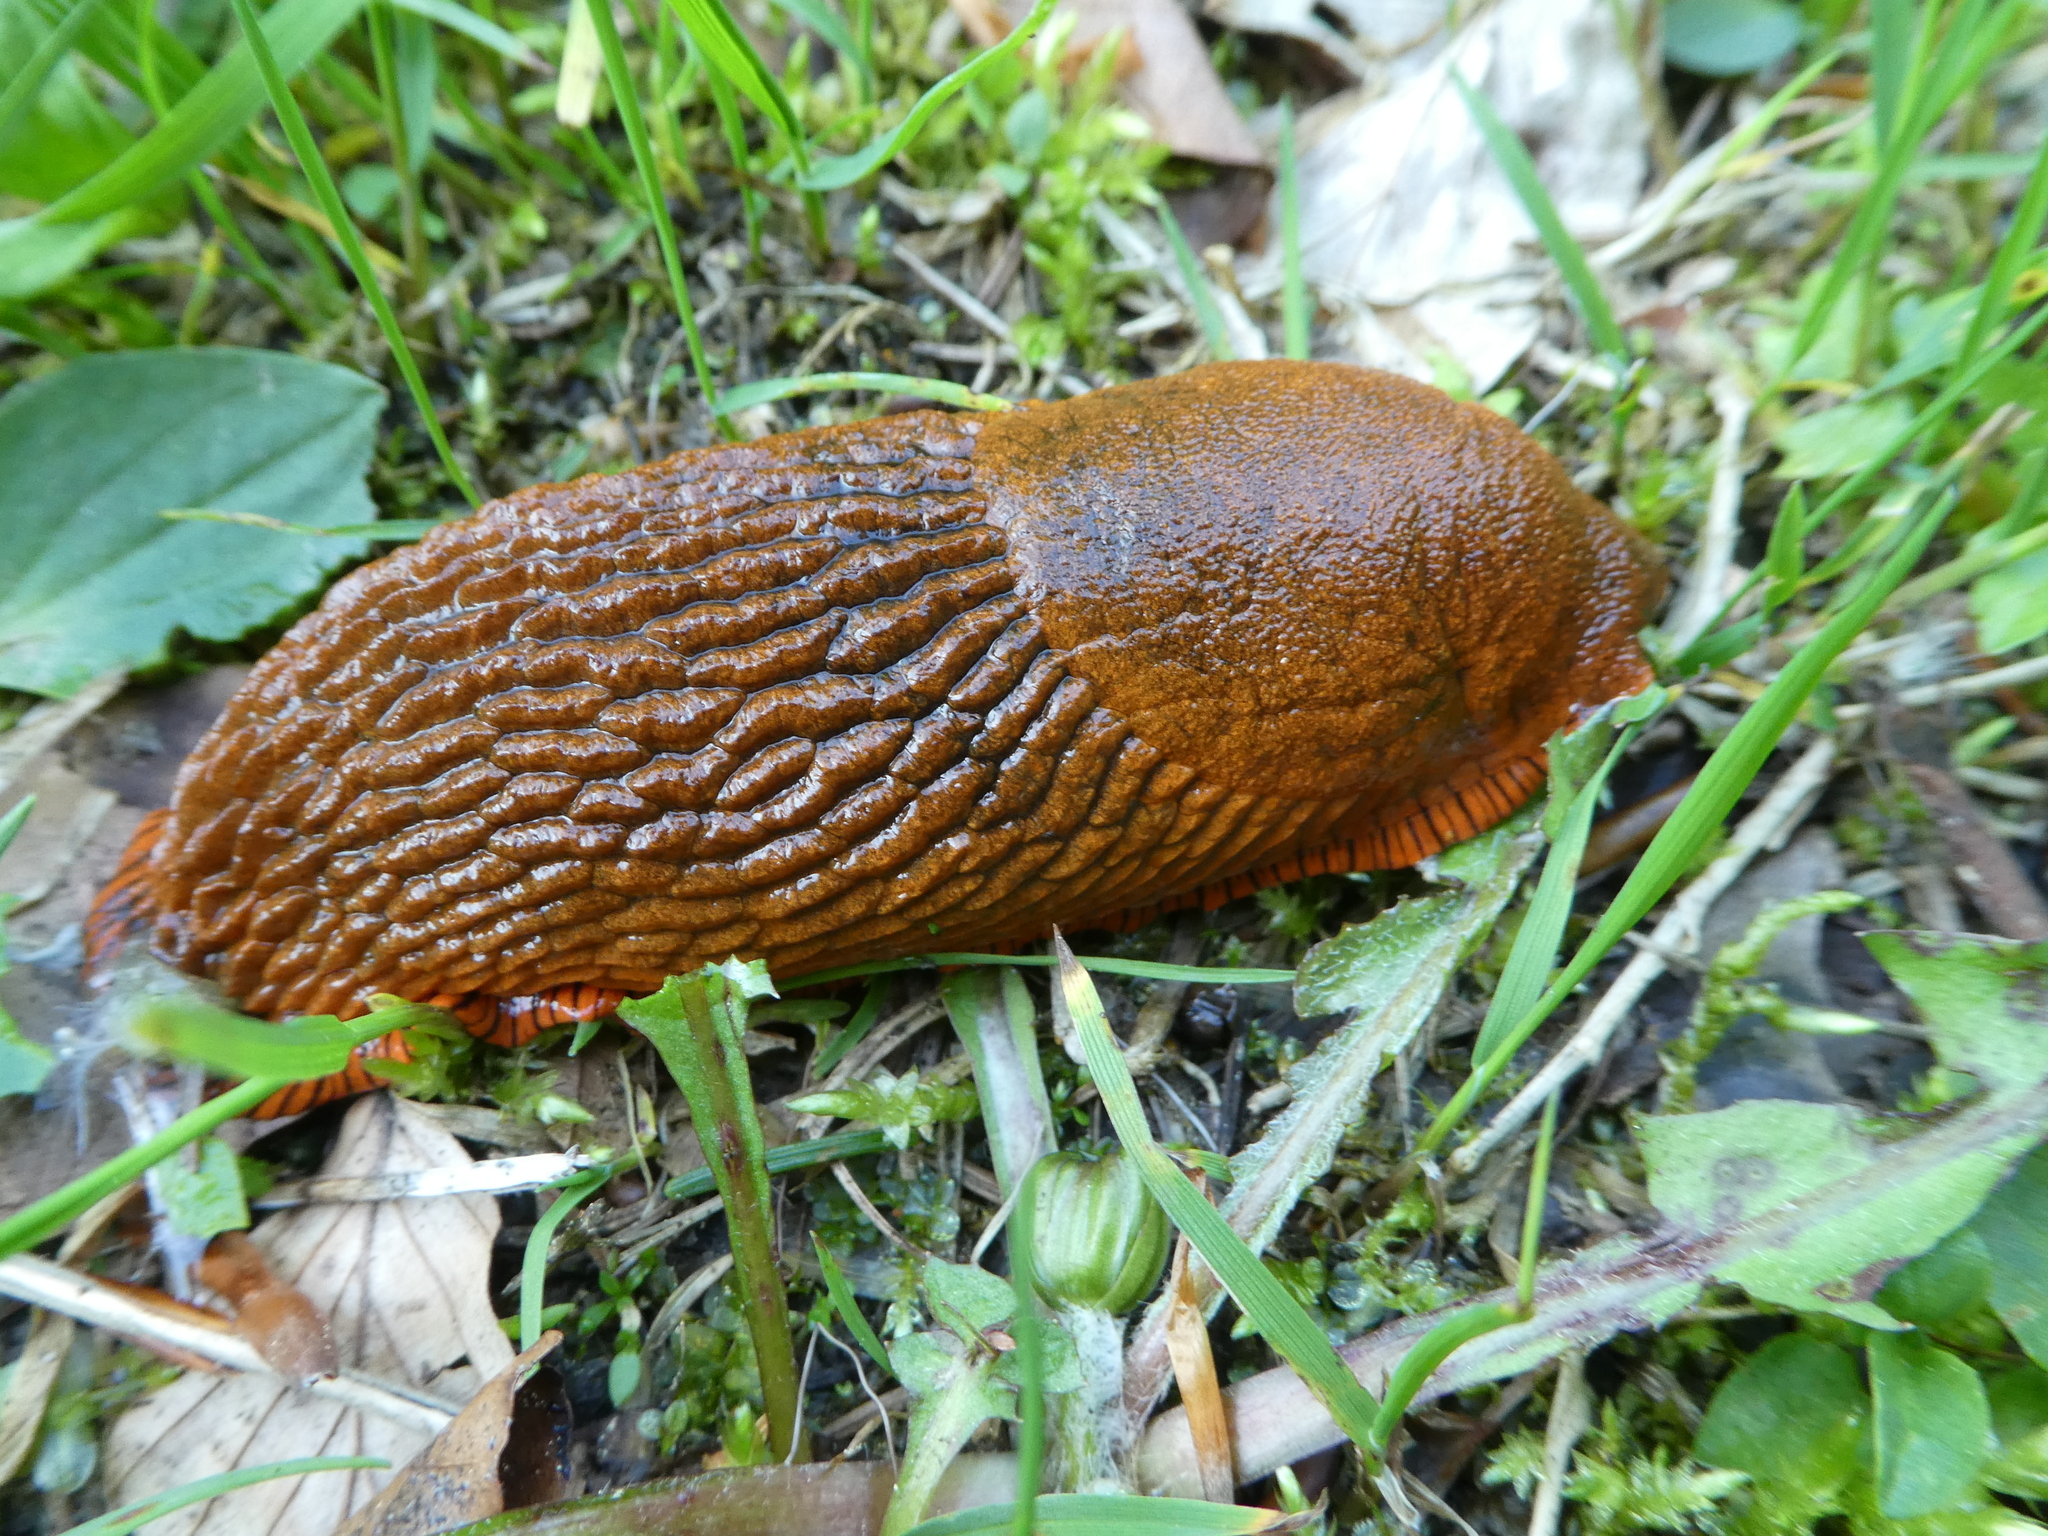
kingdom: Animalia
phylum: Mollusca
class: Gastropoda
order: Stylommatophora
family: Arionidae
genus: Arion
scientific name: Arion vulgaris
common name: Lusitanian slug
